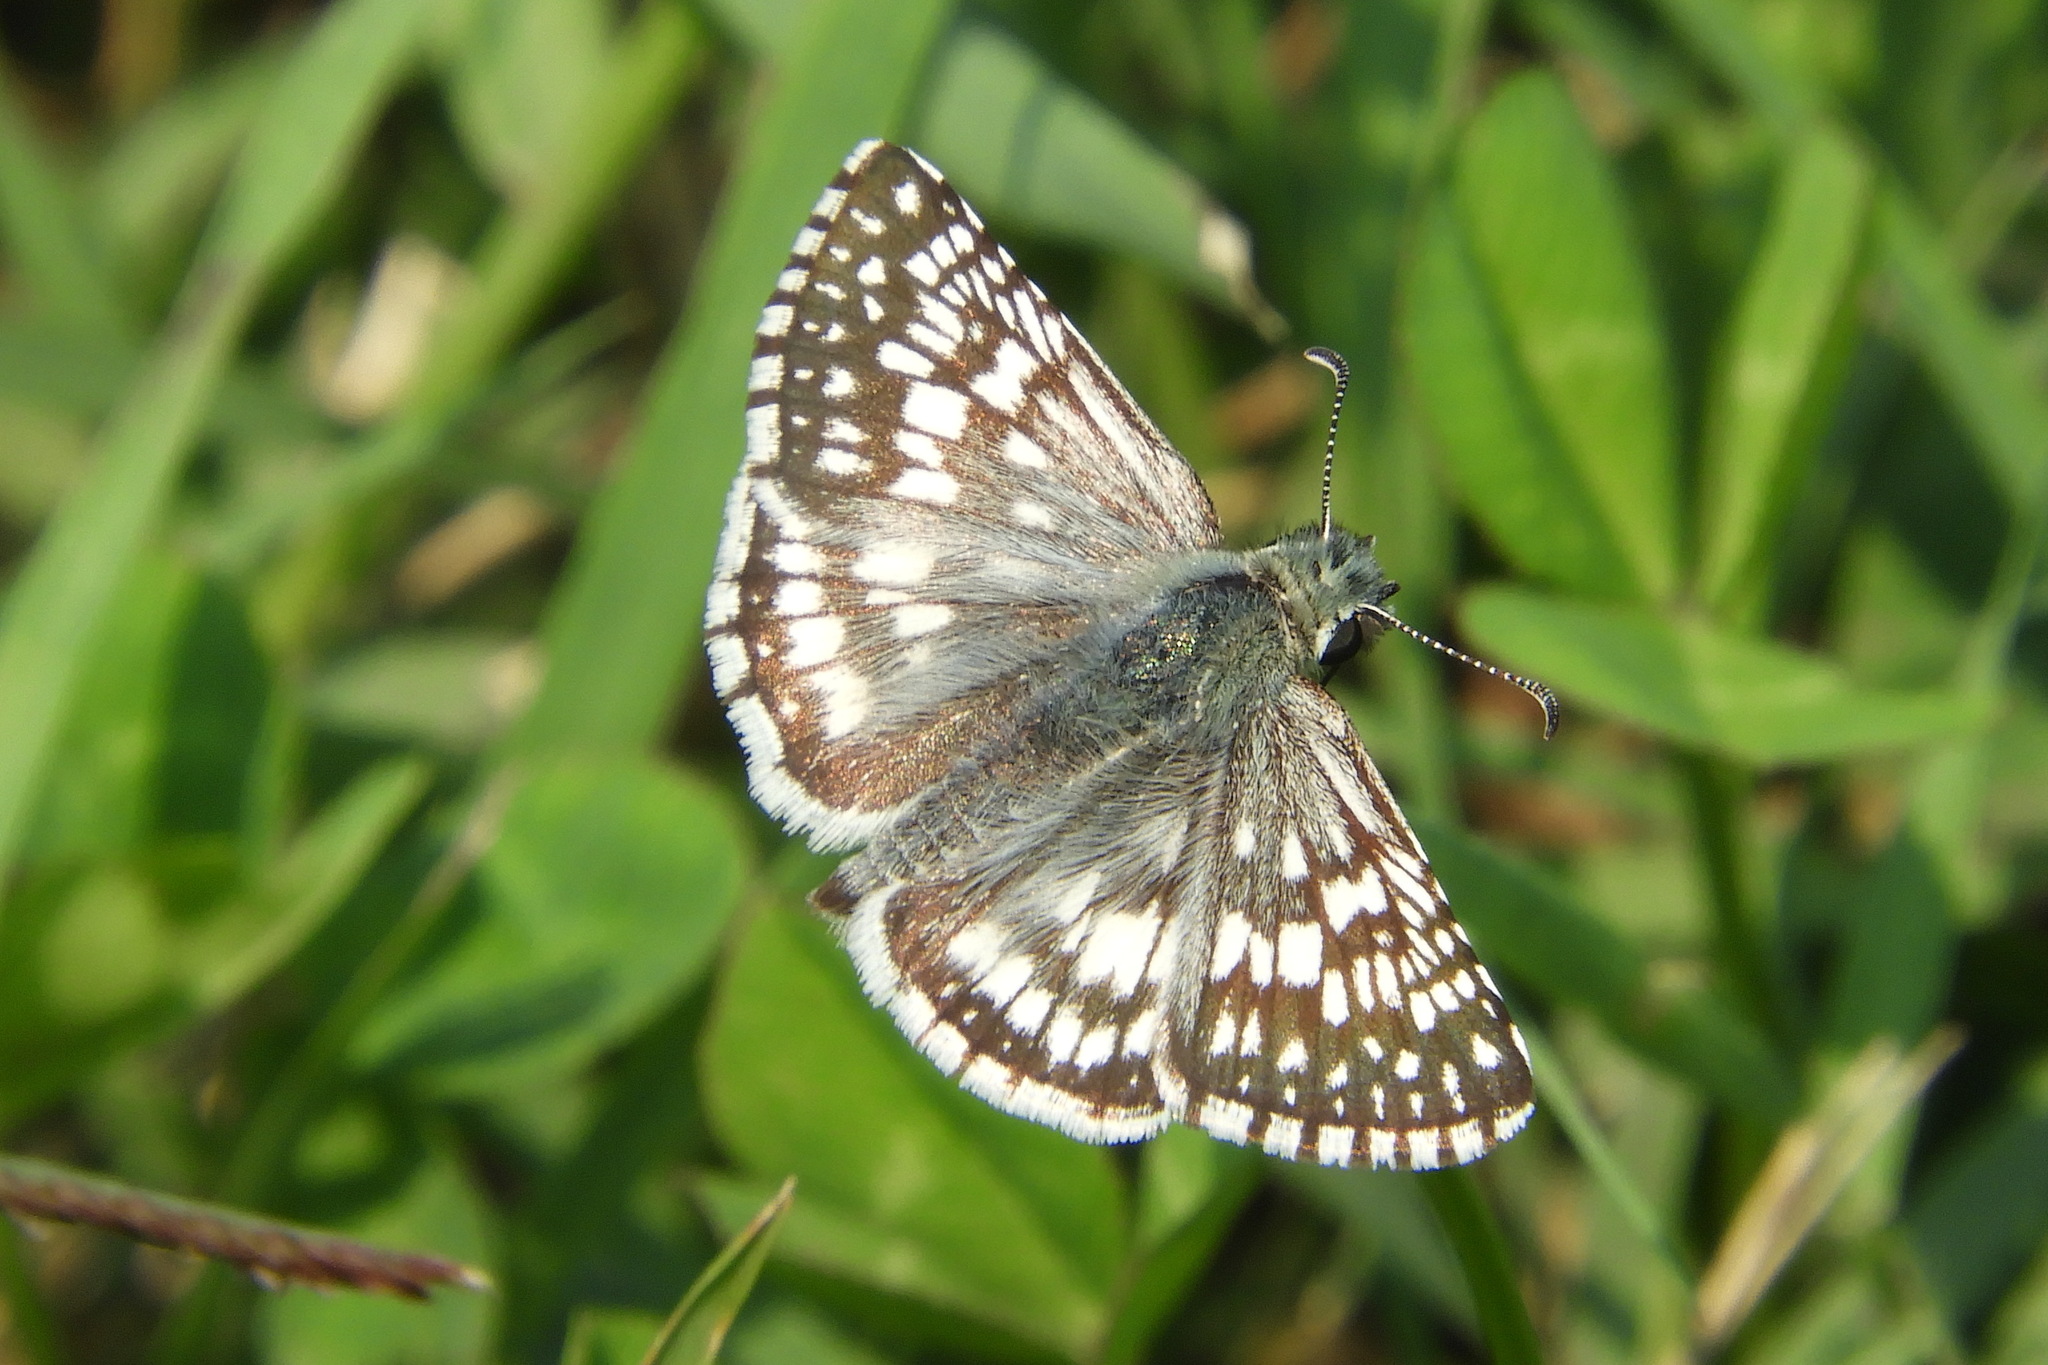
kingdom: Animalia
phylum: Arthropoda
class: Insecta
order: Lepidoptera
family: Hesperiidae
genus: Burnsius
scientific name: Burnsius communis
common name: Common checkered-skipper
